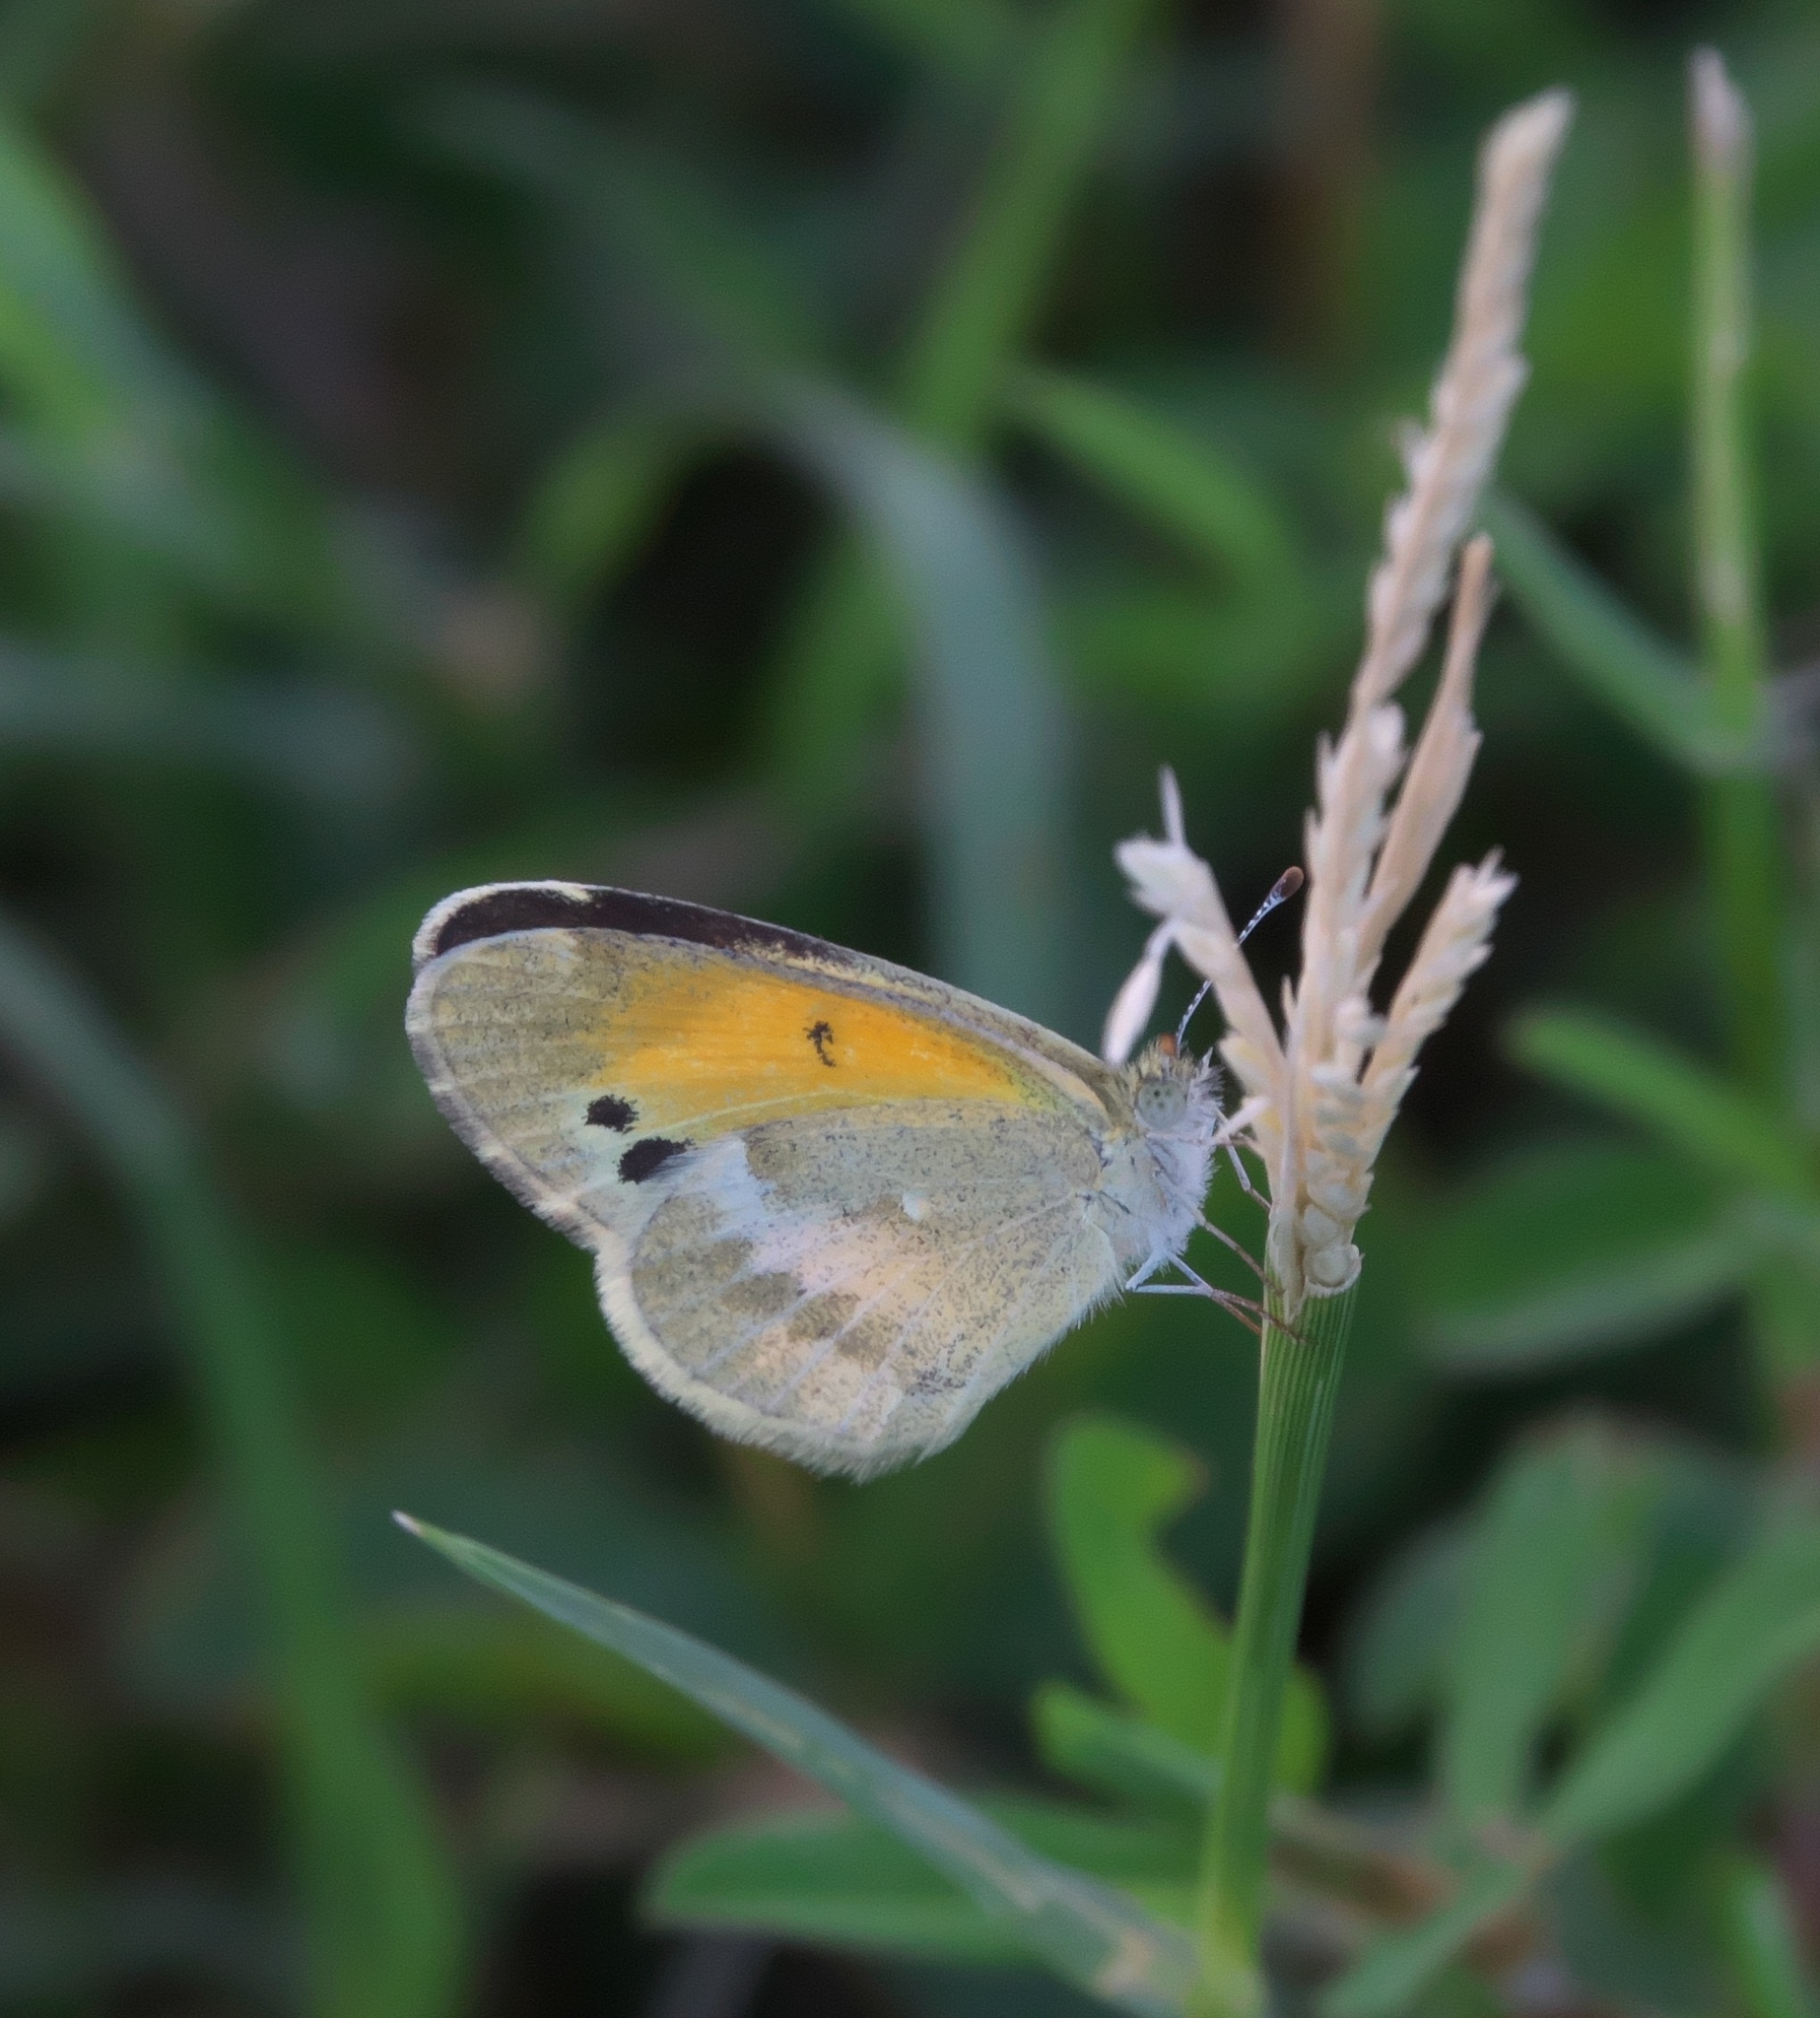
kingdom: Animalia
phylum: Arthropoda
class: Insecta
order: Lepidoptera
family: Pieridae
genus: Nathalis
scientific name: Nathalis iole
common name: Dainty sulphur
